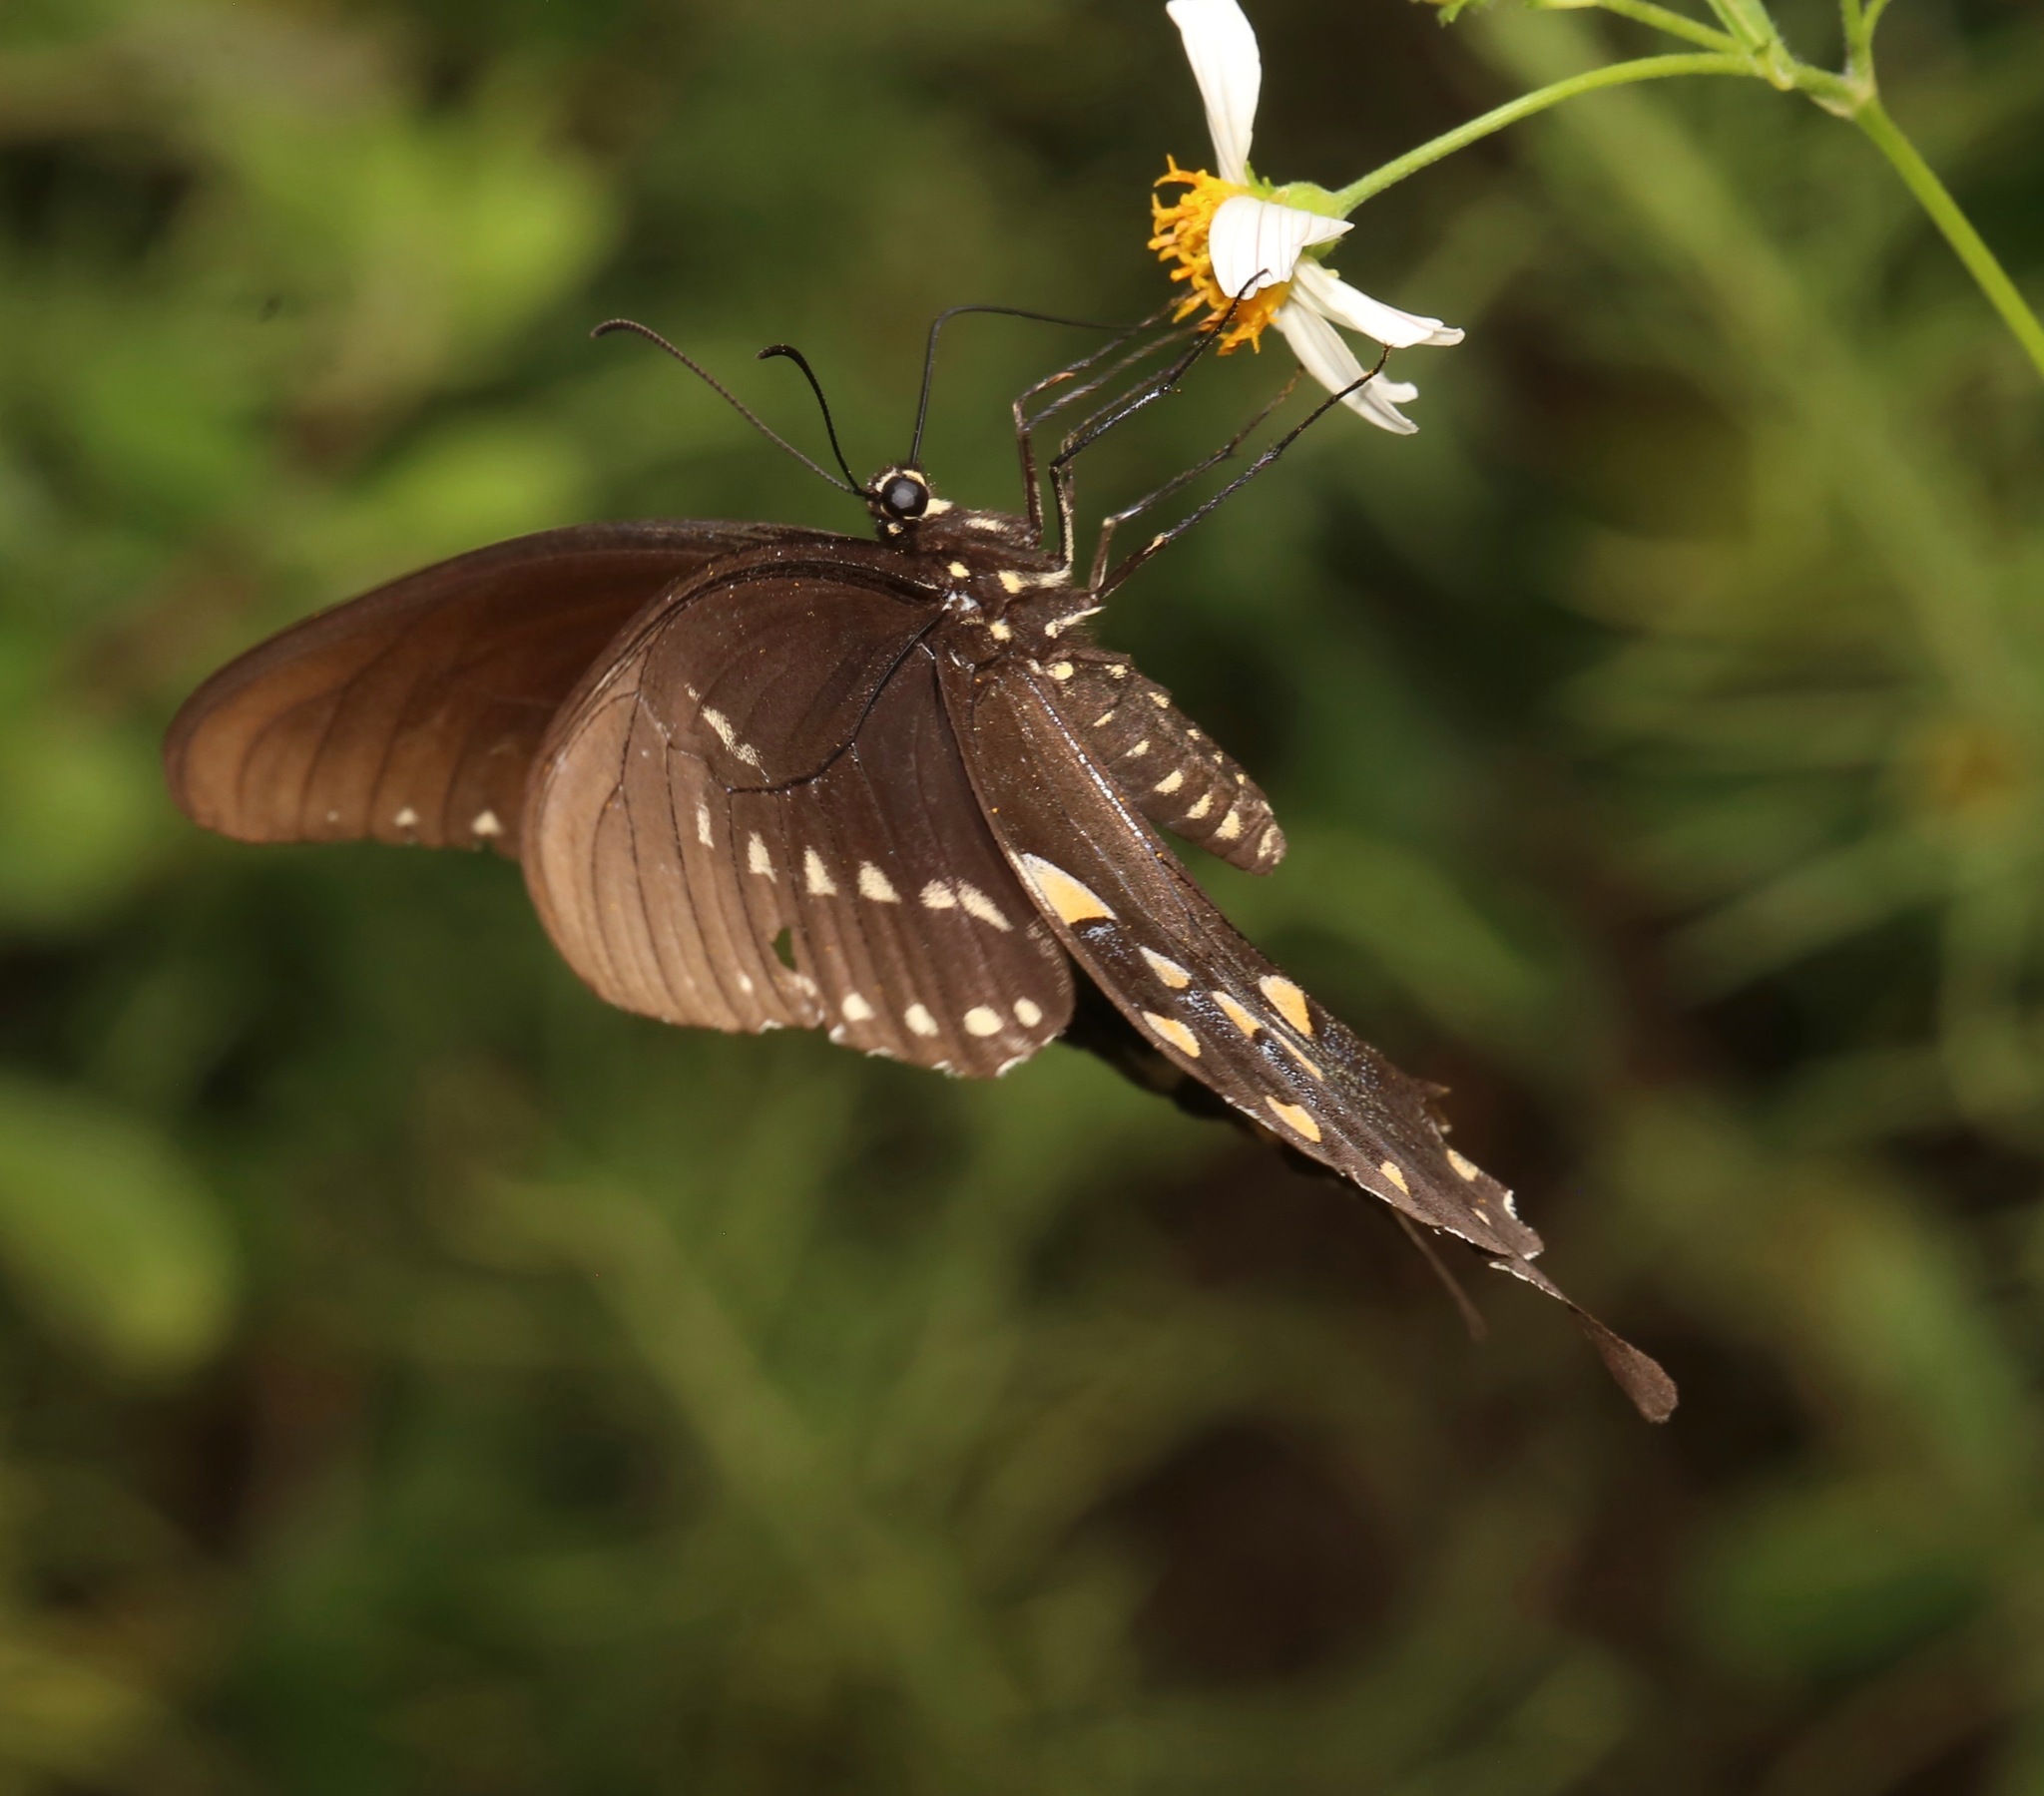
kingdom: Animalia
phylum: Arthropoda
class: Insecta
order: Lepidoptera
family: Papilionidae
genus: Papilio
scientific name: Papilio troilus
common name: Spicebush swallowtail
